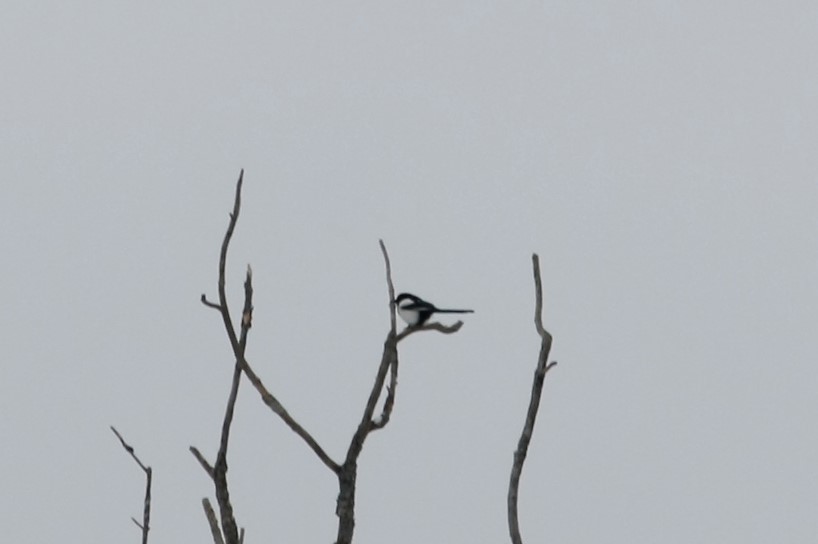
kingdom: Animalia
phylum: Chordata
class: Aves
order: Passeriformes
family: Corvidae
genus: Pica
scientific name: Pica pica
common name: Eurasian magpie
